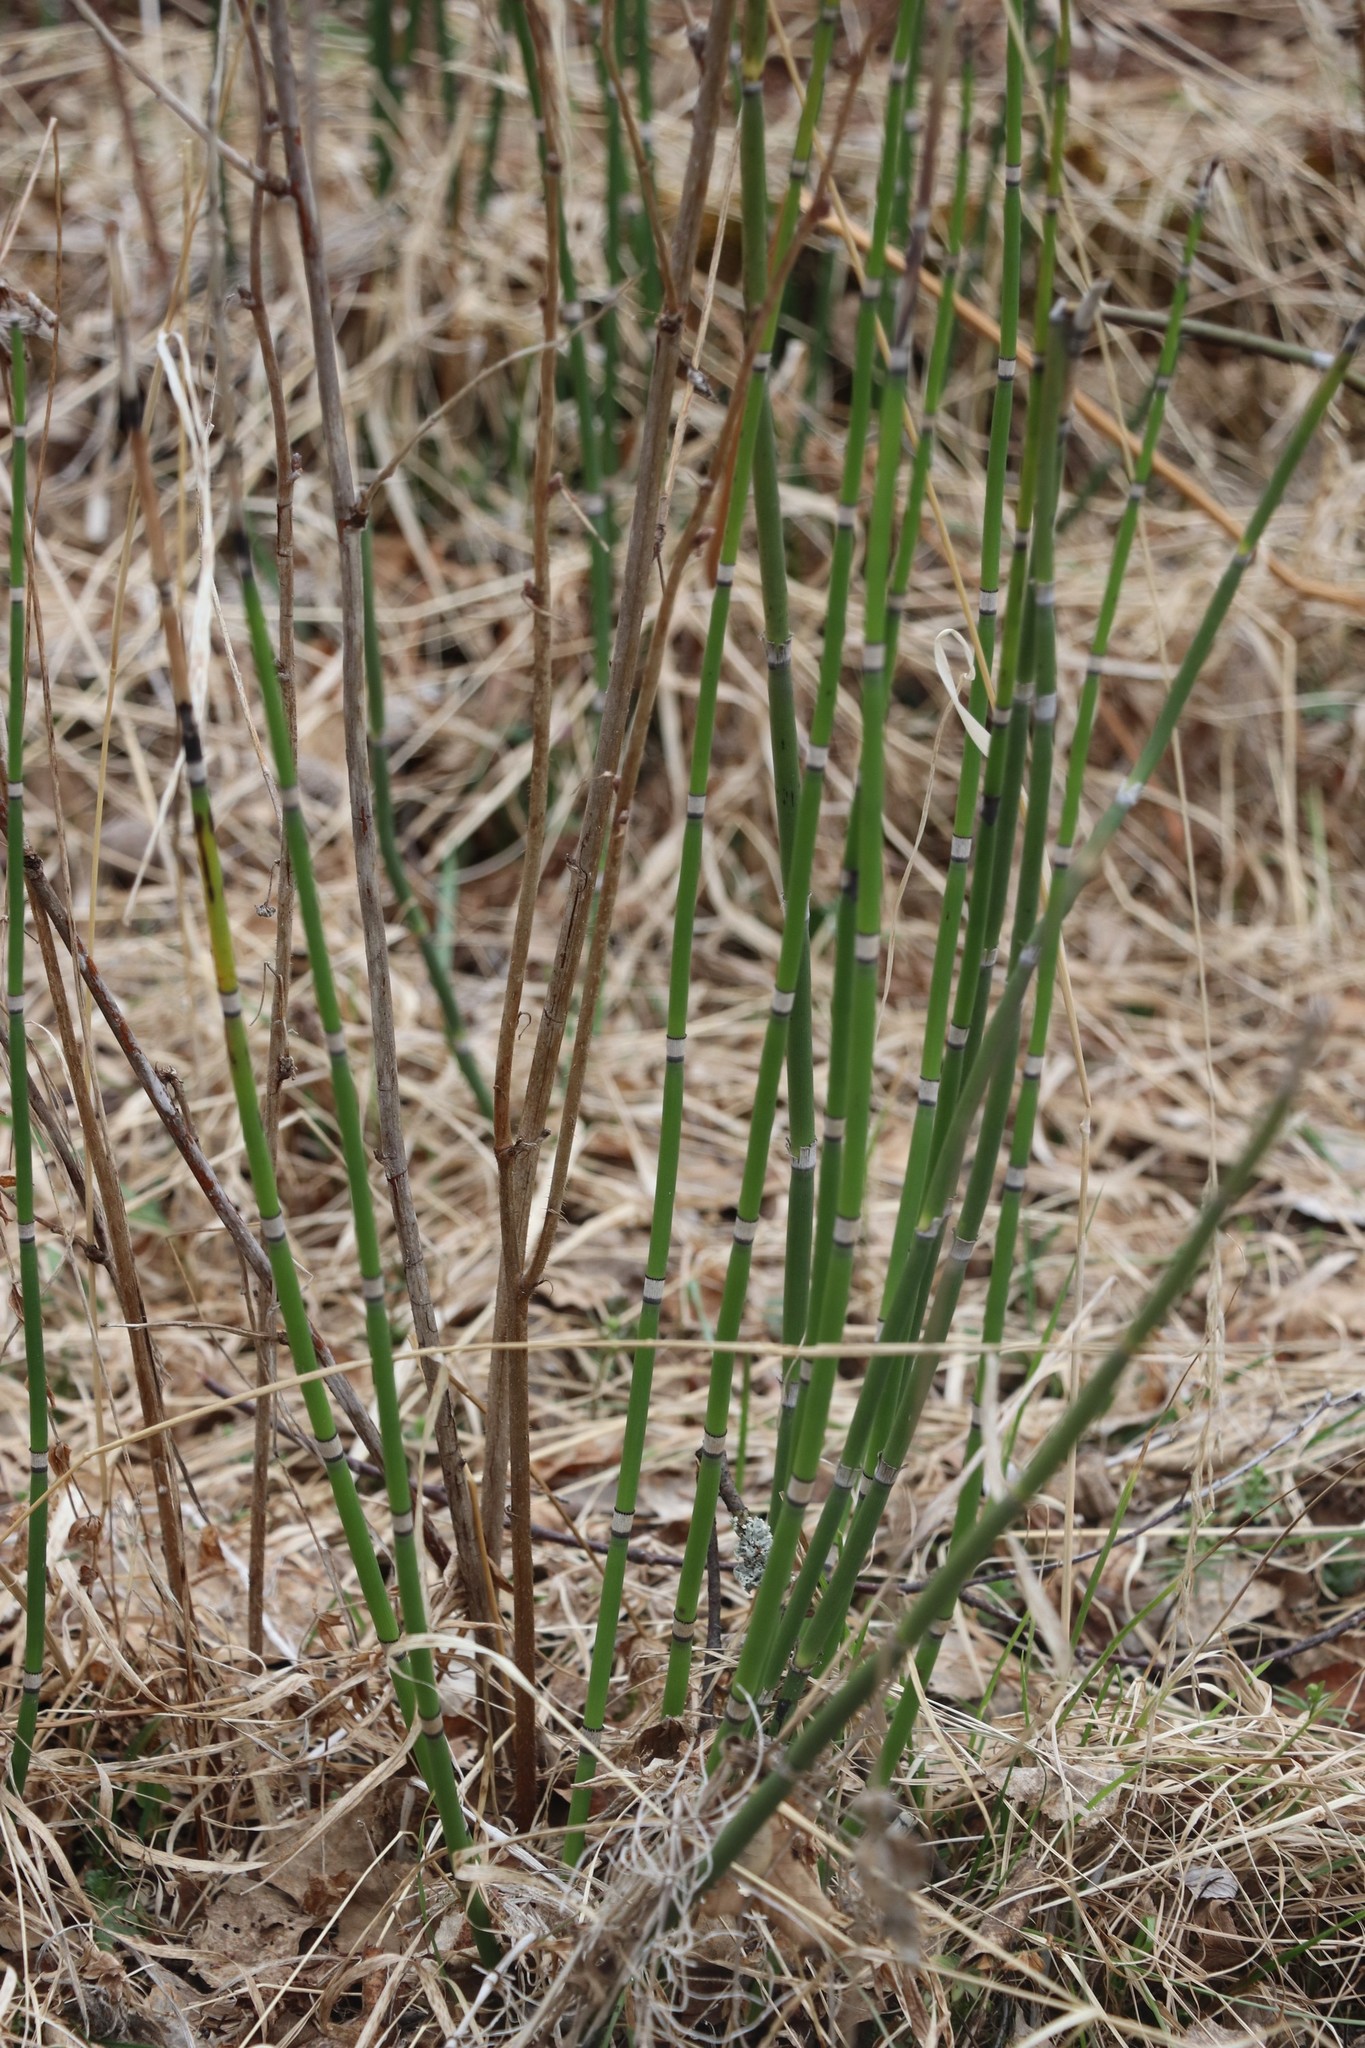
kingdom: Plantae
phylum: Tracheophyta
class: Polypodiopsida
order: Equisetales
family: Equisetaceae
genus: Equisetum
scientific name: Equisetum hyemale
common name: Rough horsetail
